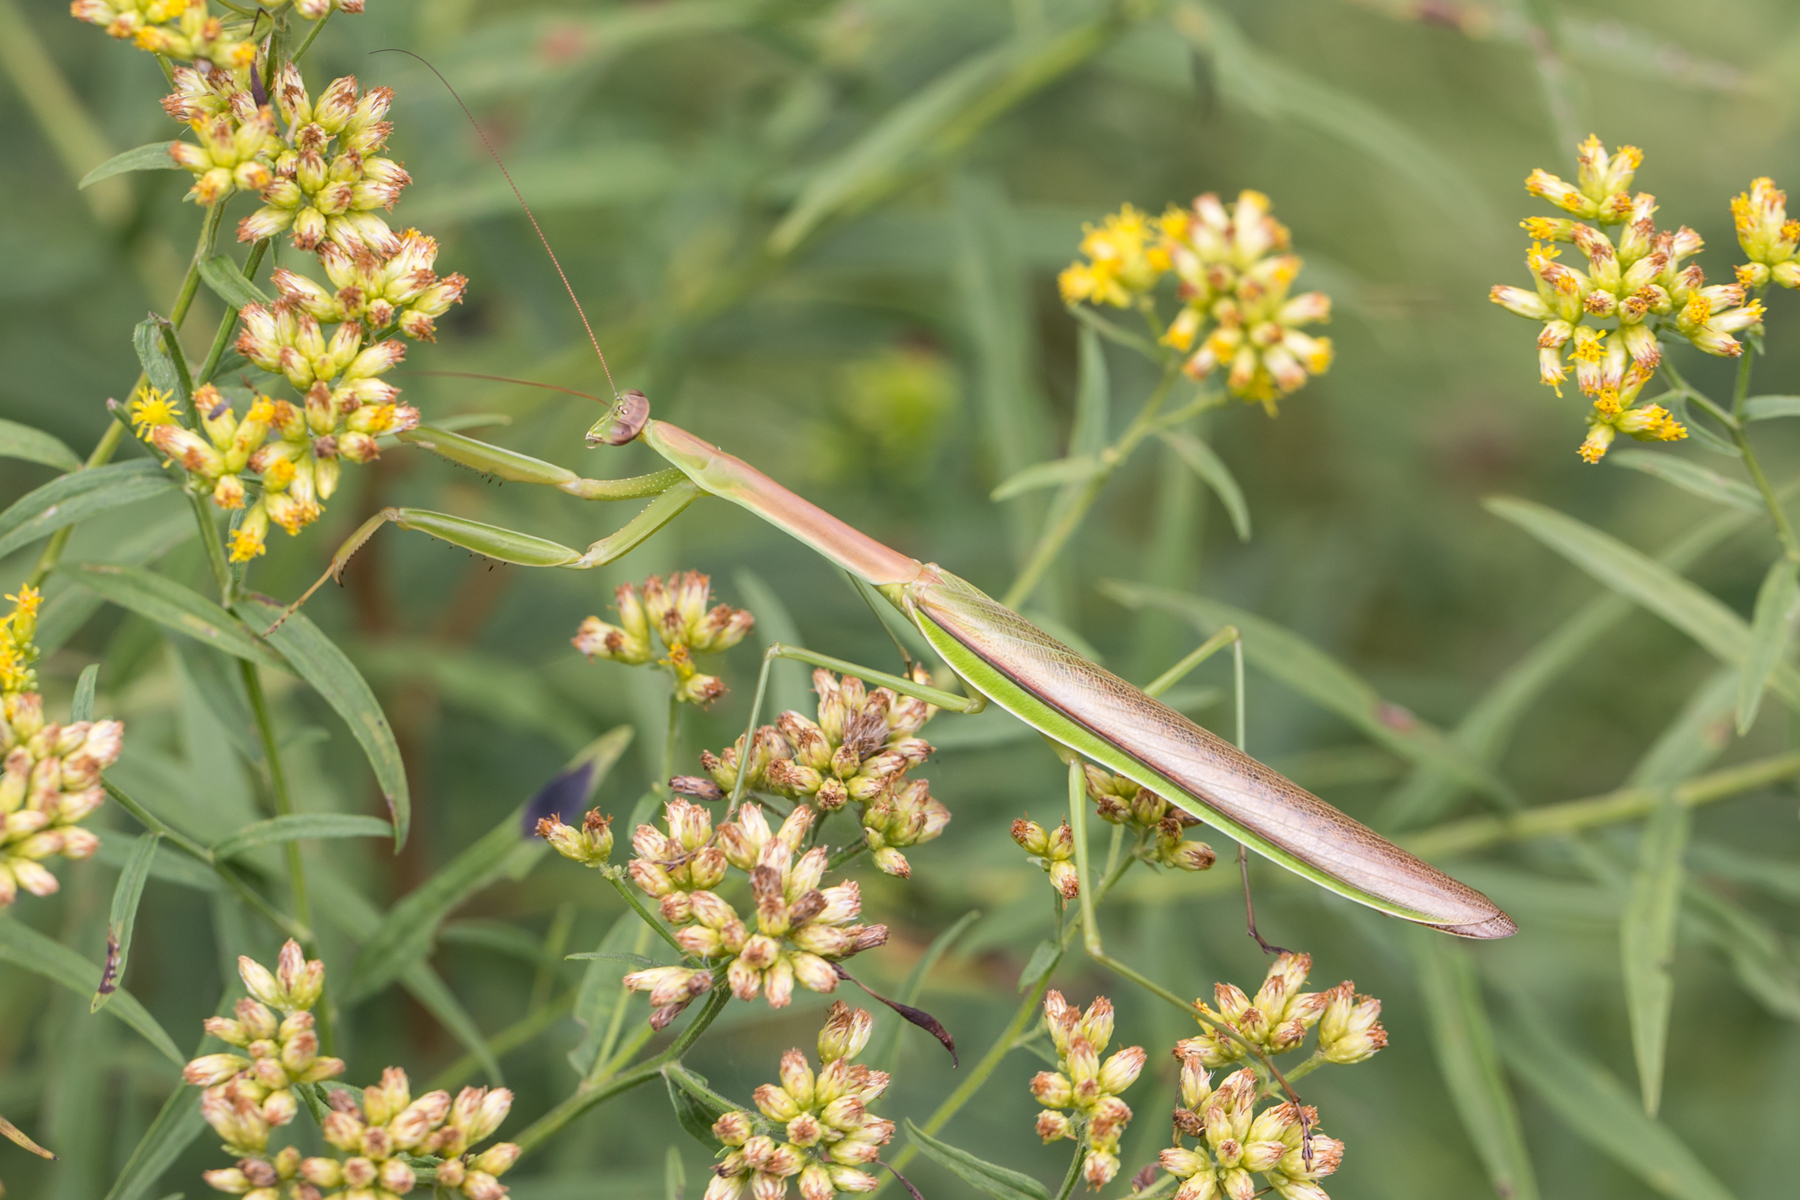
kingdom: Animalia
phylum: Arthropoda
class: Insecta
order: Mantodea
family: Mantidae
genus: Tenodera
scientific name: Tenodera angustipennis
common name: Asian mantis
